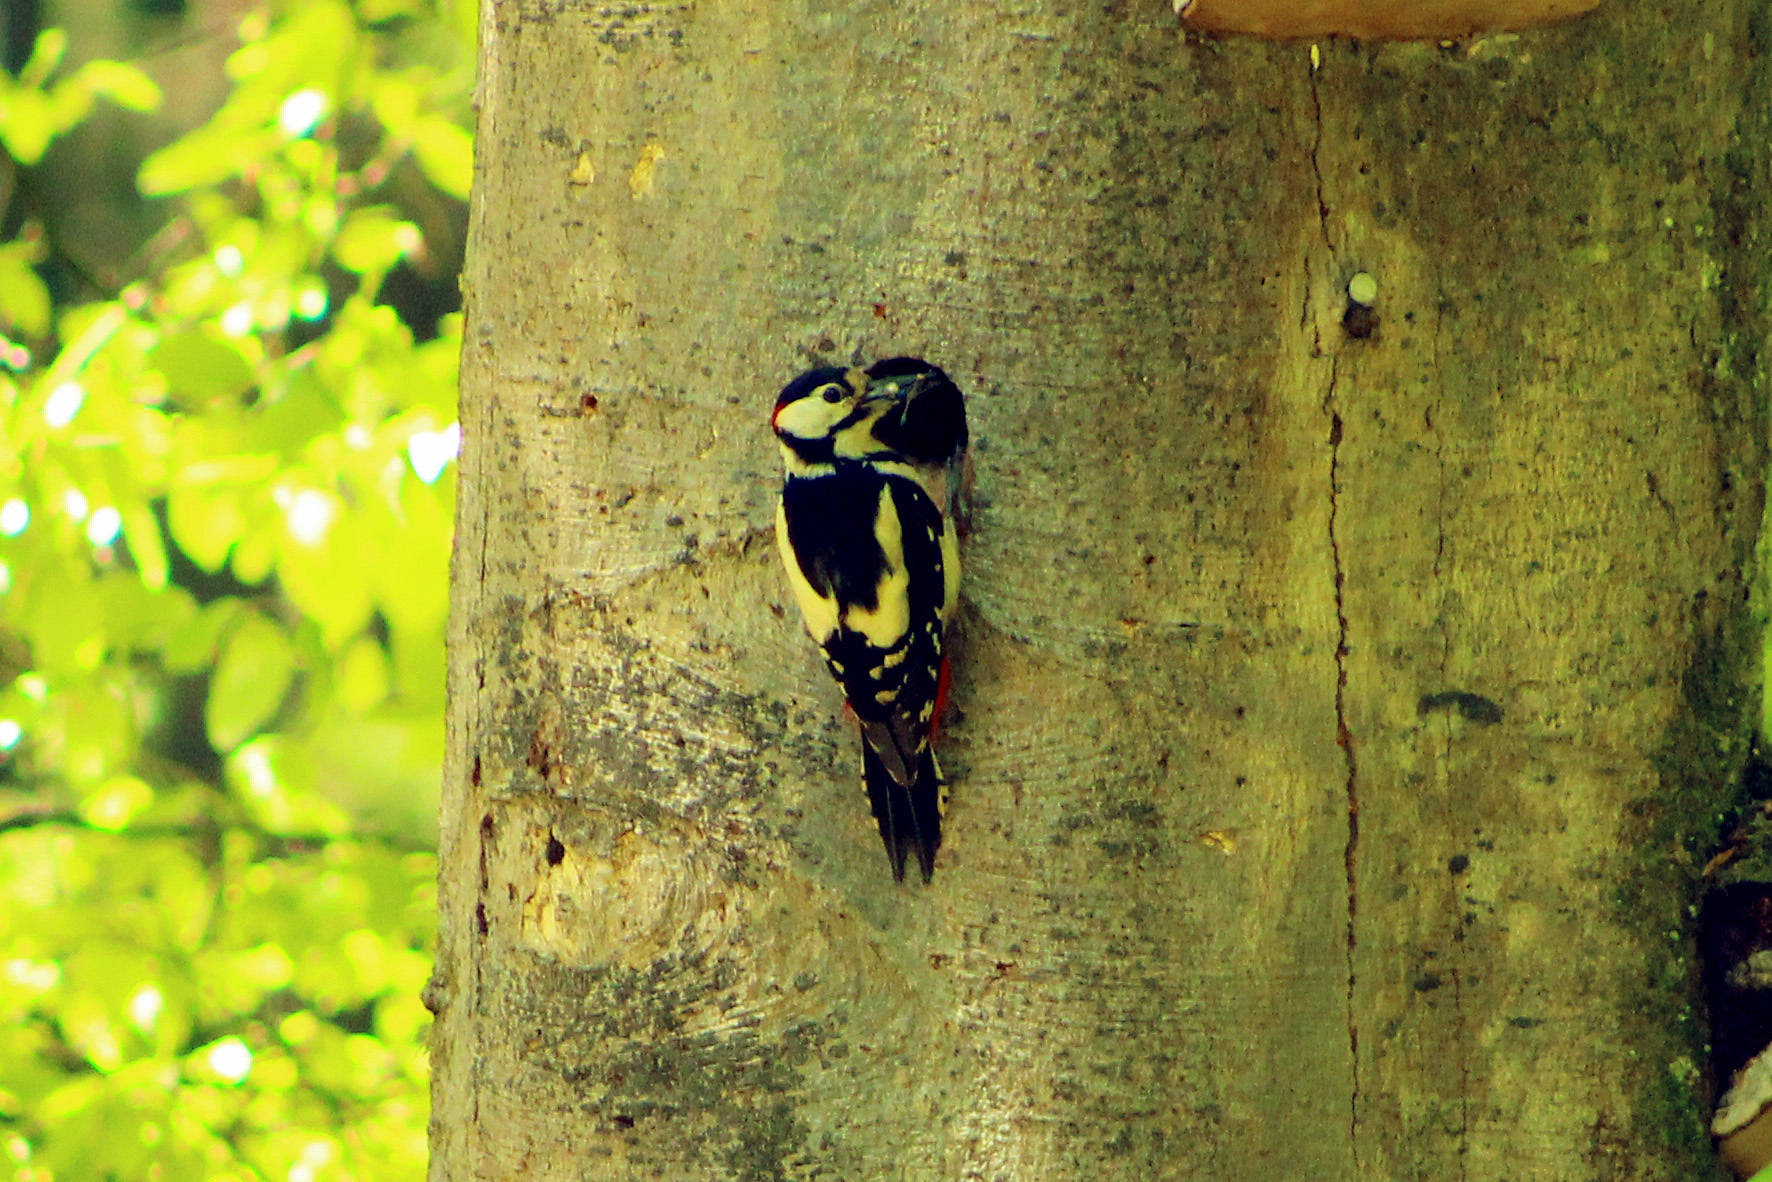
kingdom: Animalia
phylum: Chordata
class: Aves
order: Piciformes
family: Picidae
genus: Dendrocopos
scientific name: Dendrocopos major
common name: Great spotted woodpecker
